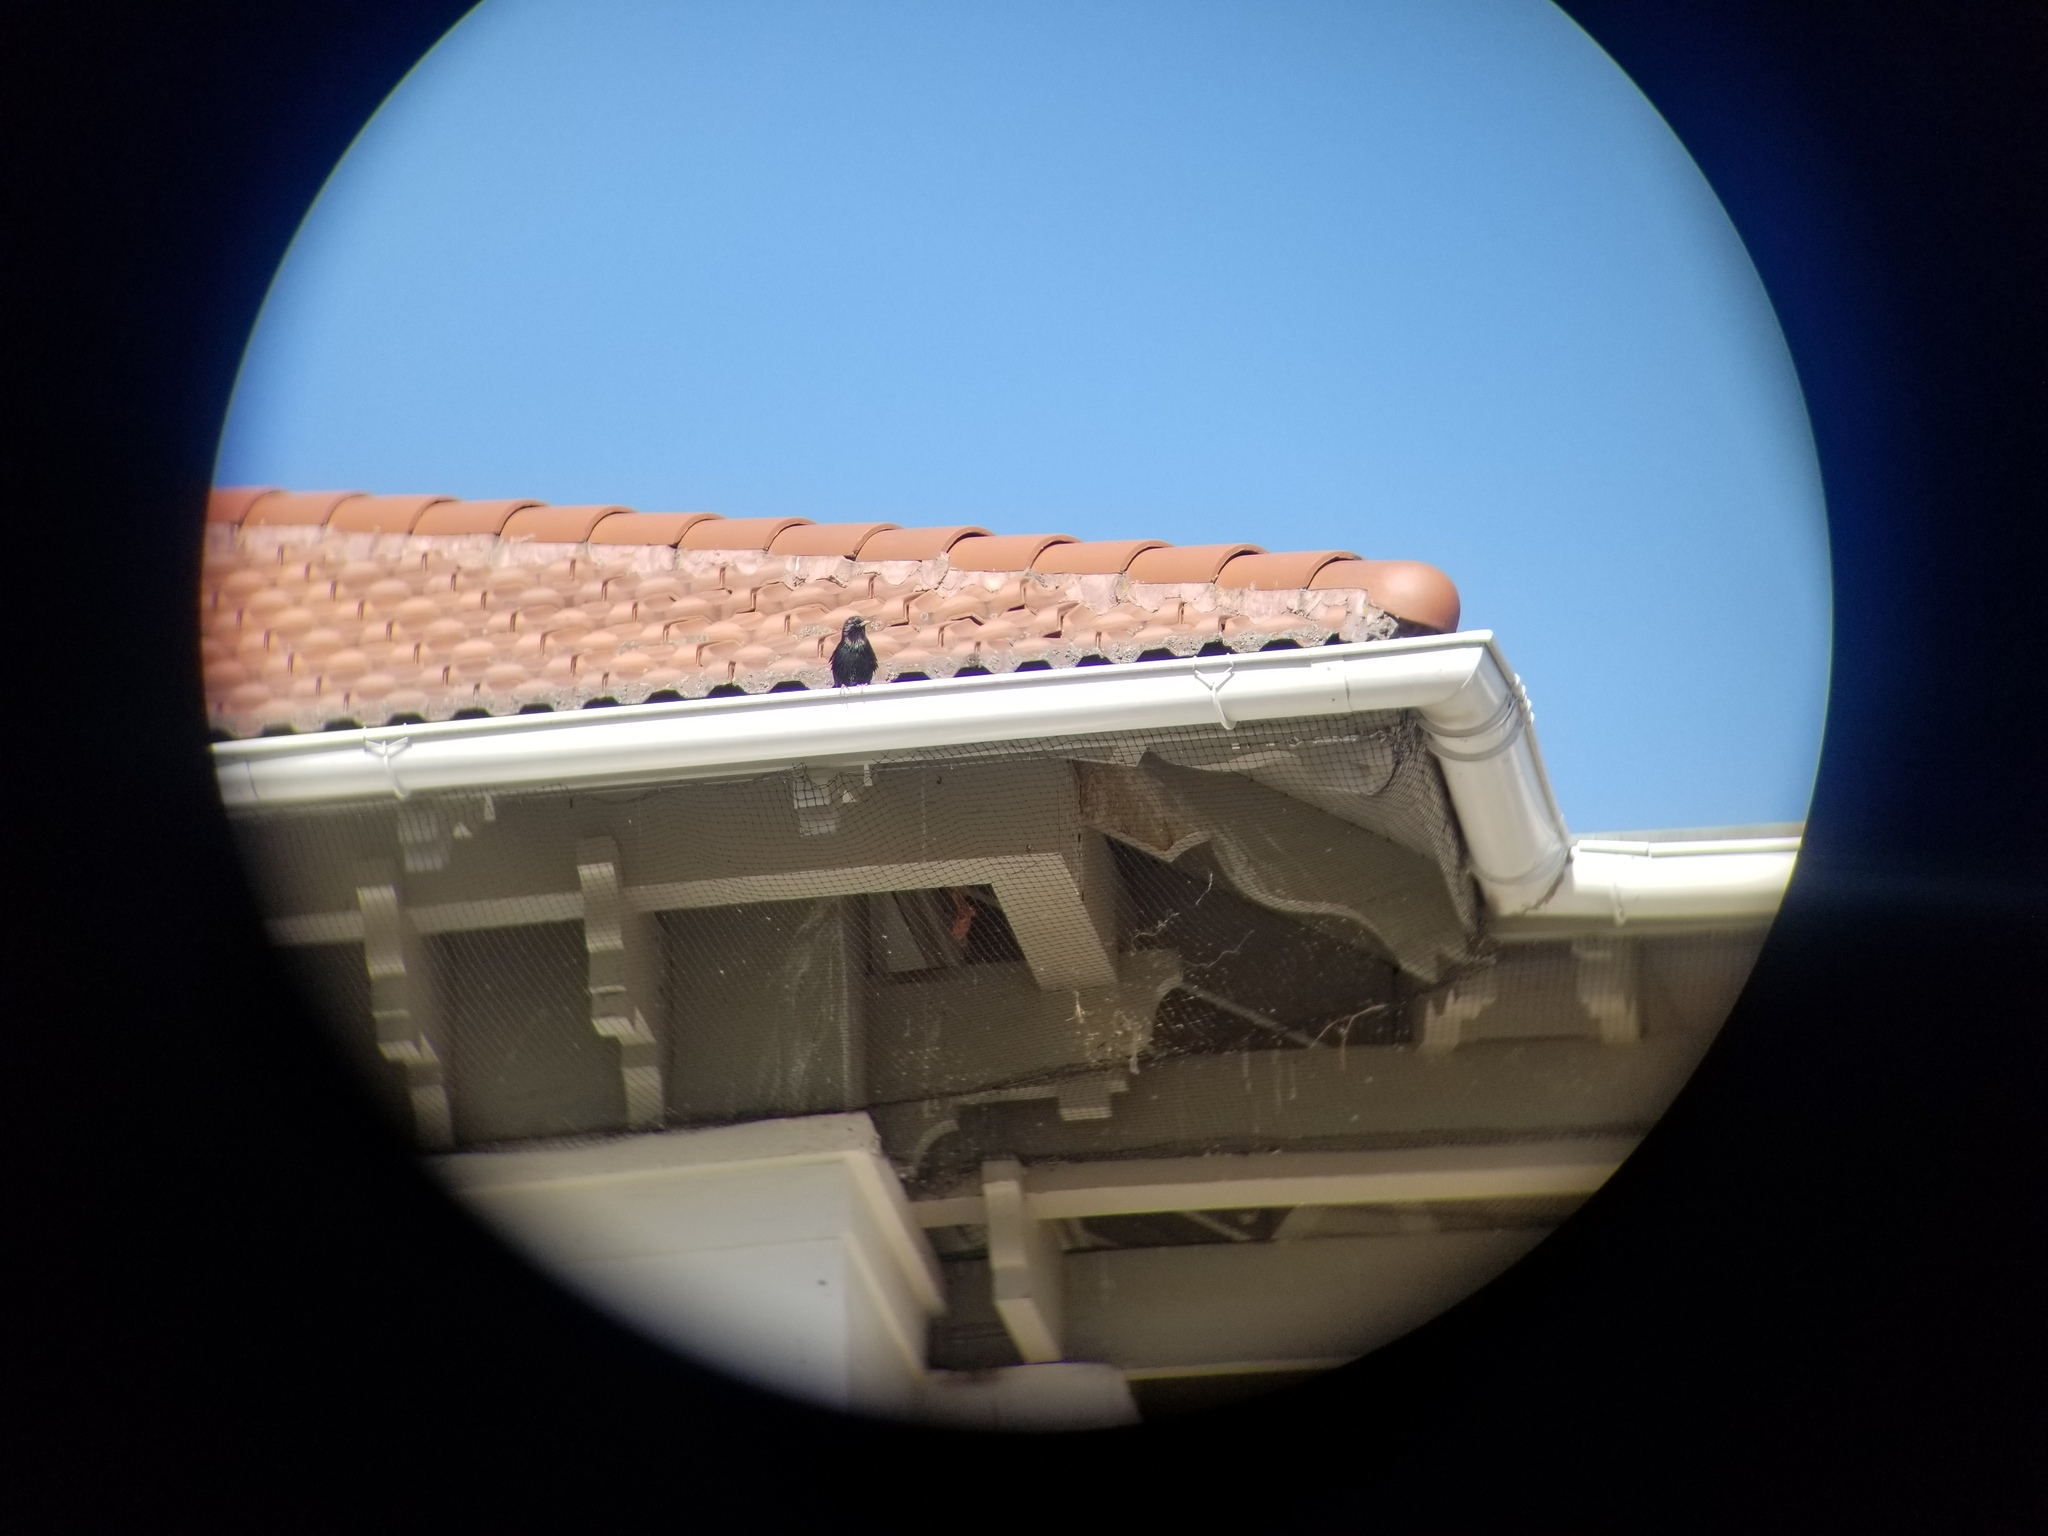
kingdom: Animalia
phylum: Chordata
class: Aves
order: Passeriformes
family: Sturnidae
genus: Sturnus
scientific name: Sturnus vulgaris
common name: Common starling
